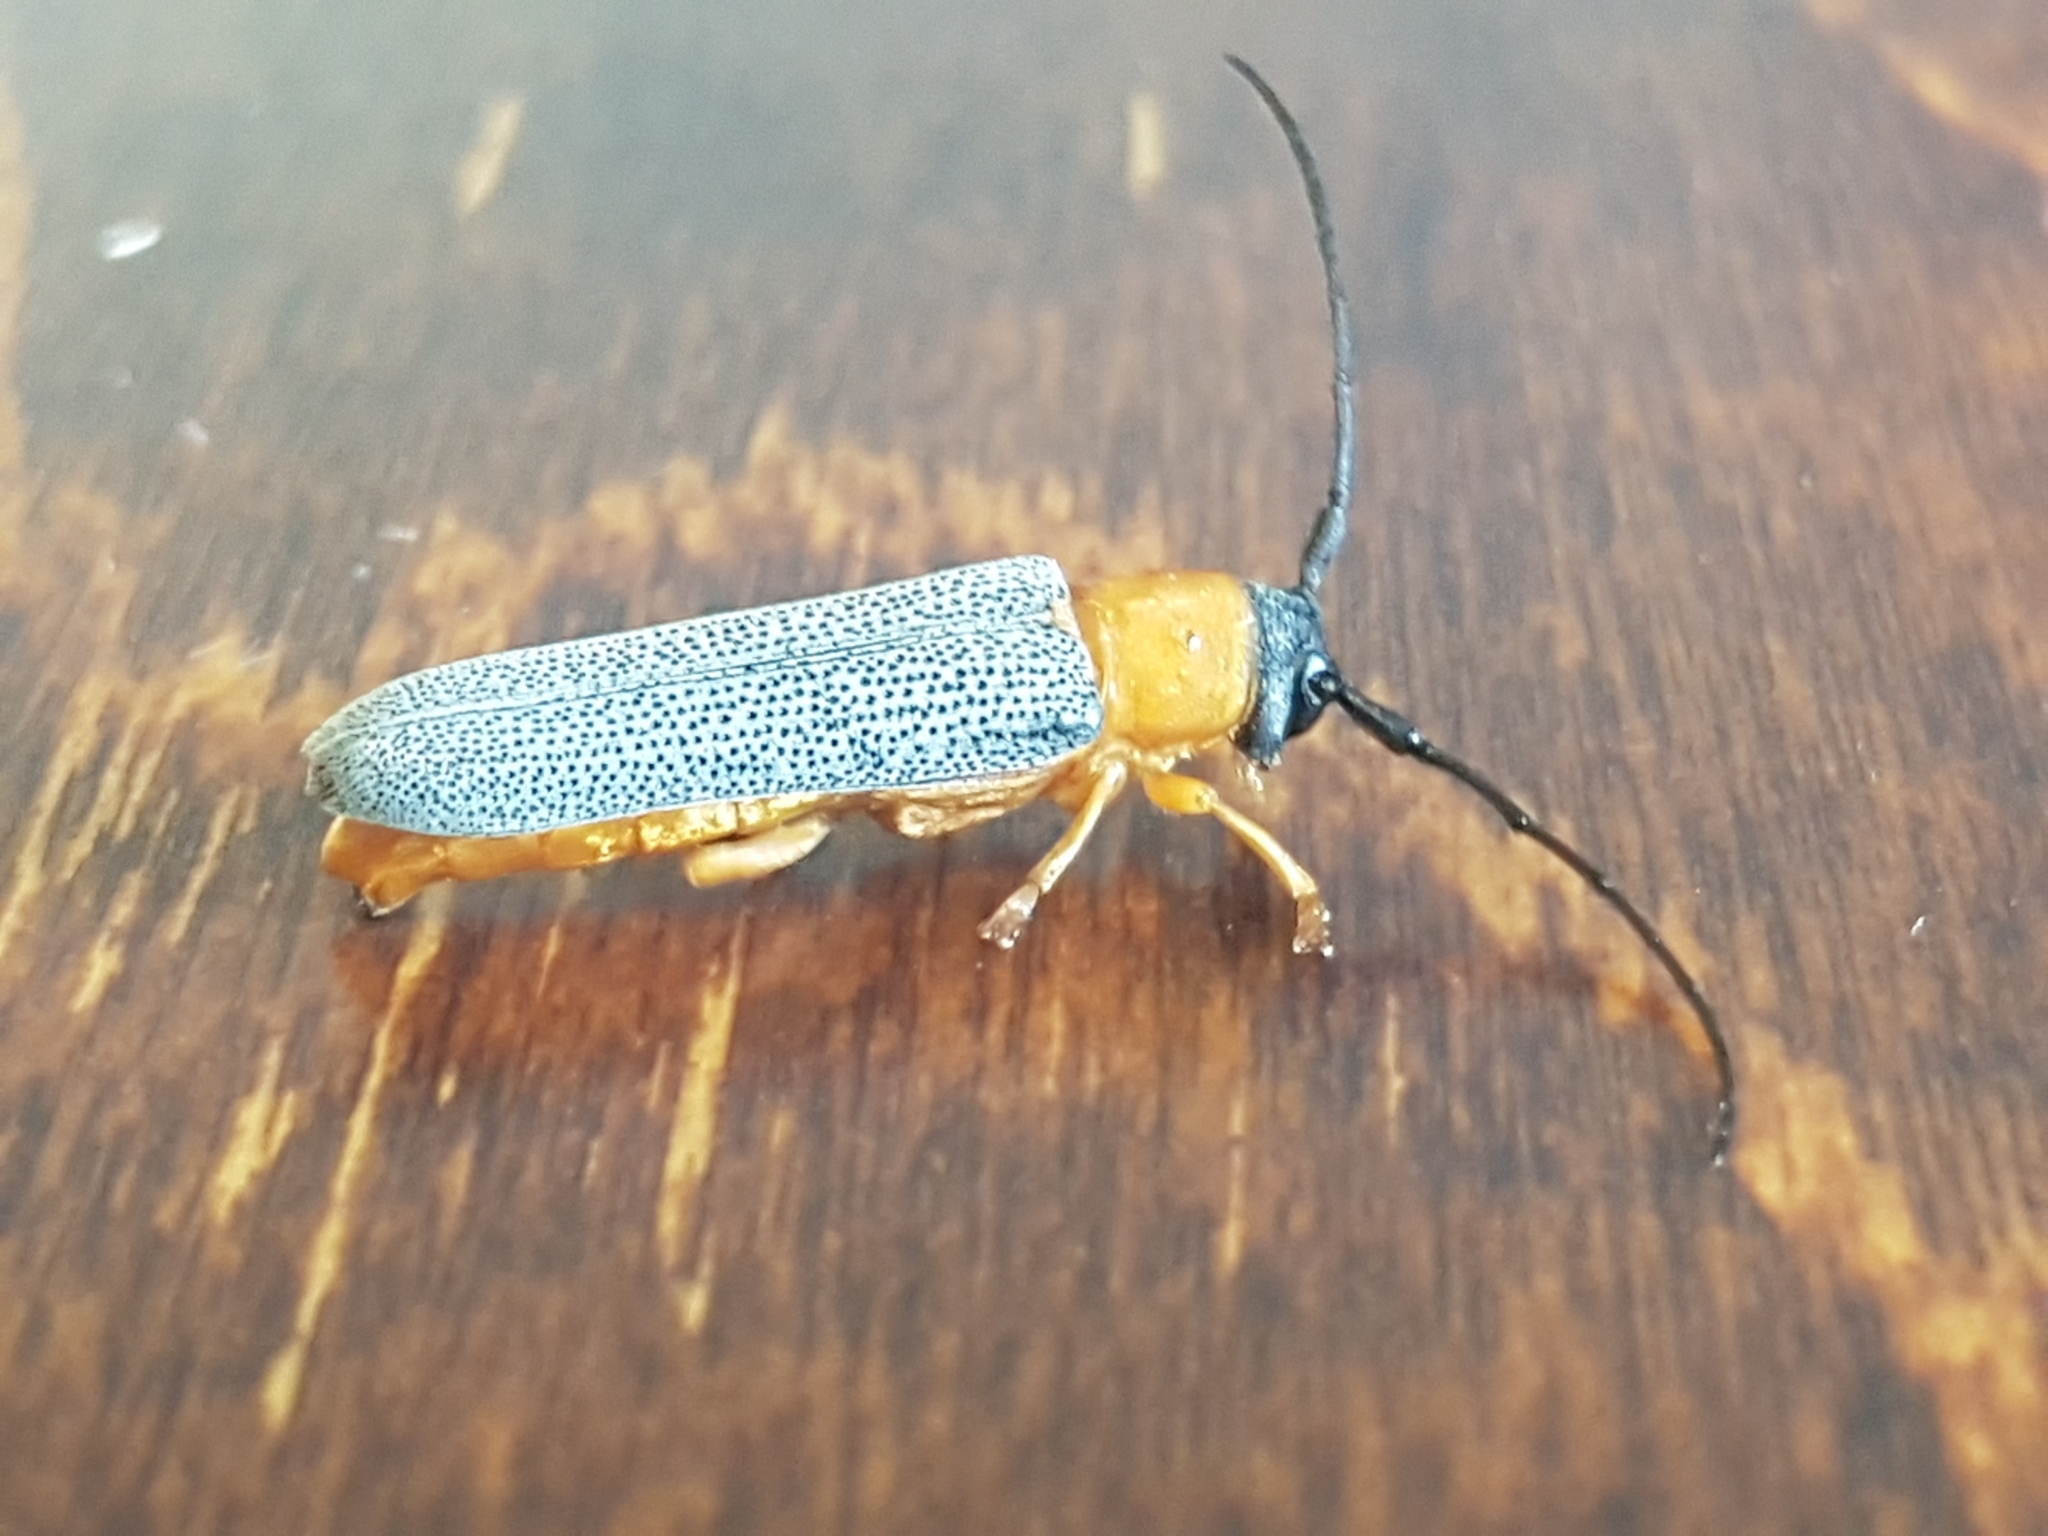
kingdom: Animalia
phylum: Arthropoda
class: Insecta
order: Coleoptera
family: Cerambycidae
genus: Oberea
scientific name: Oberea oculata
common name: Eyed longhorn beetle
